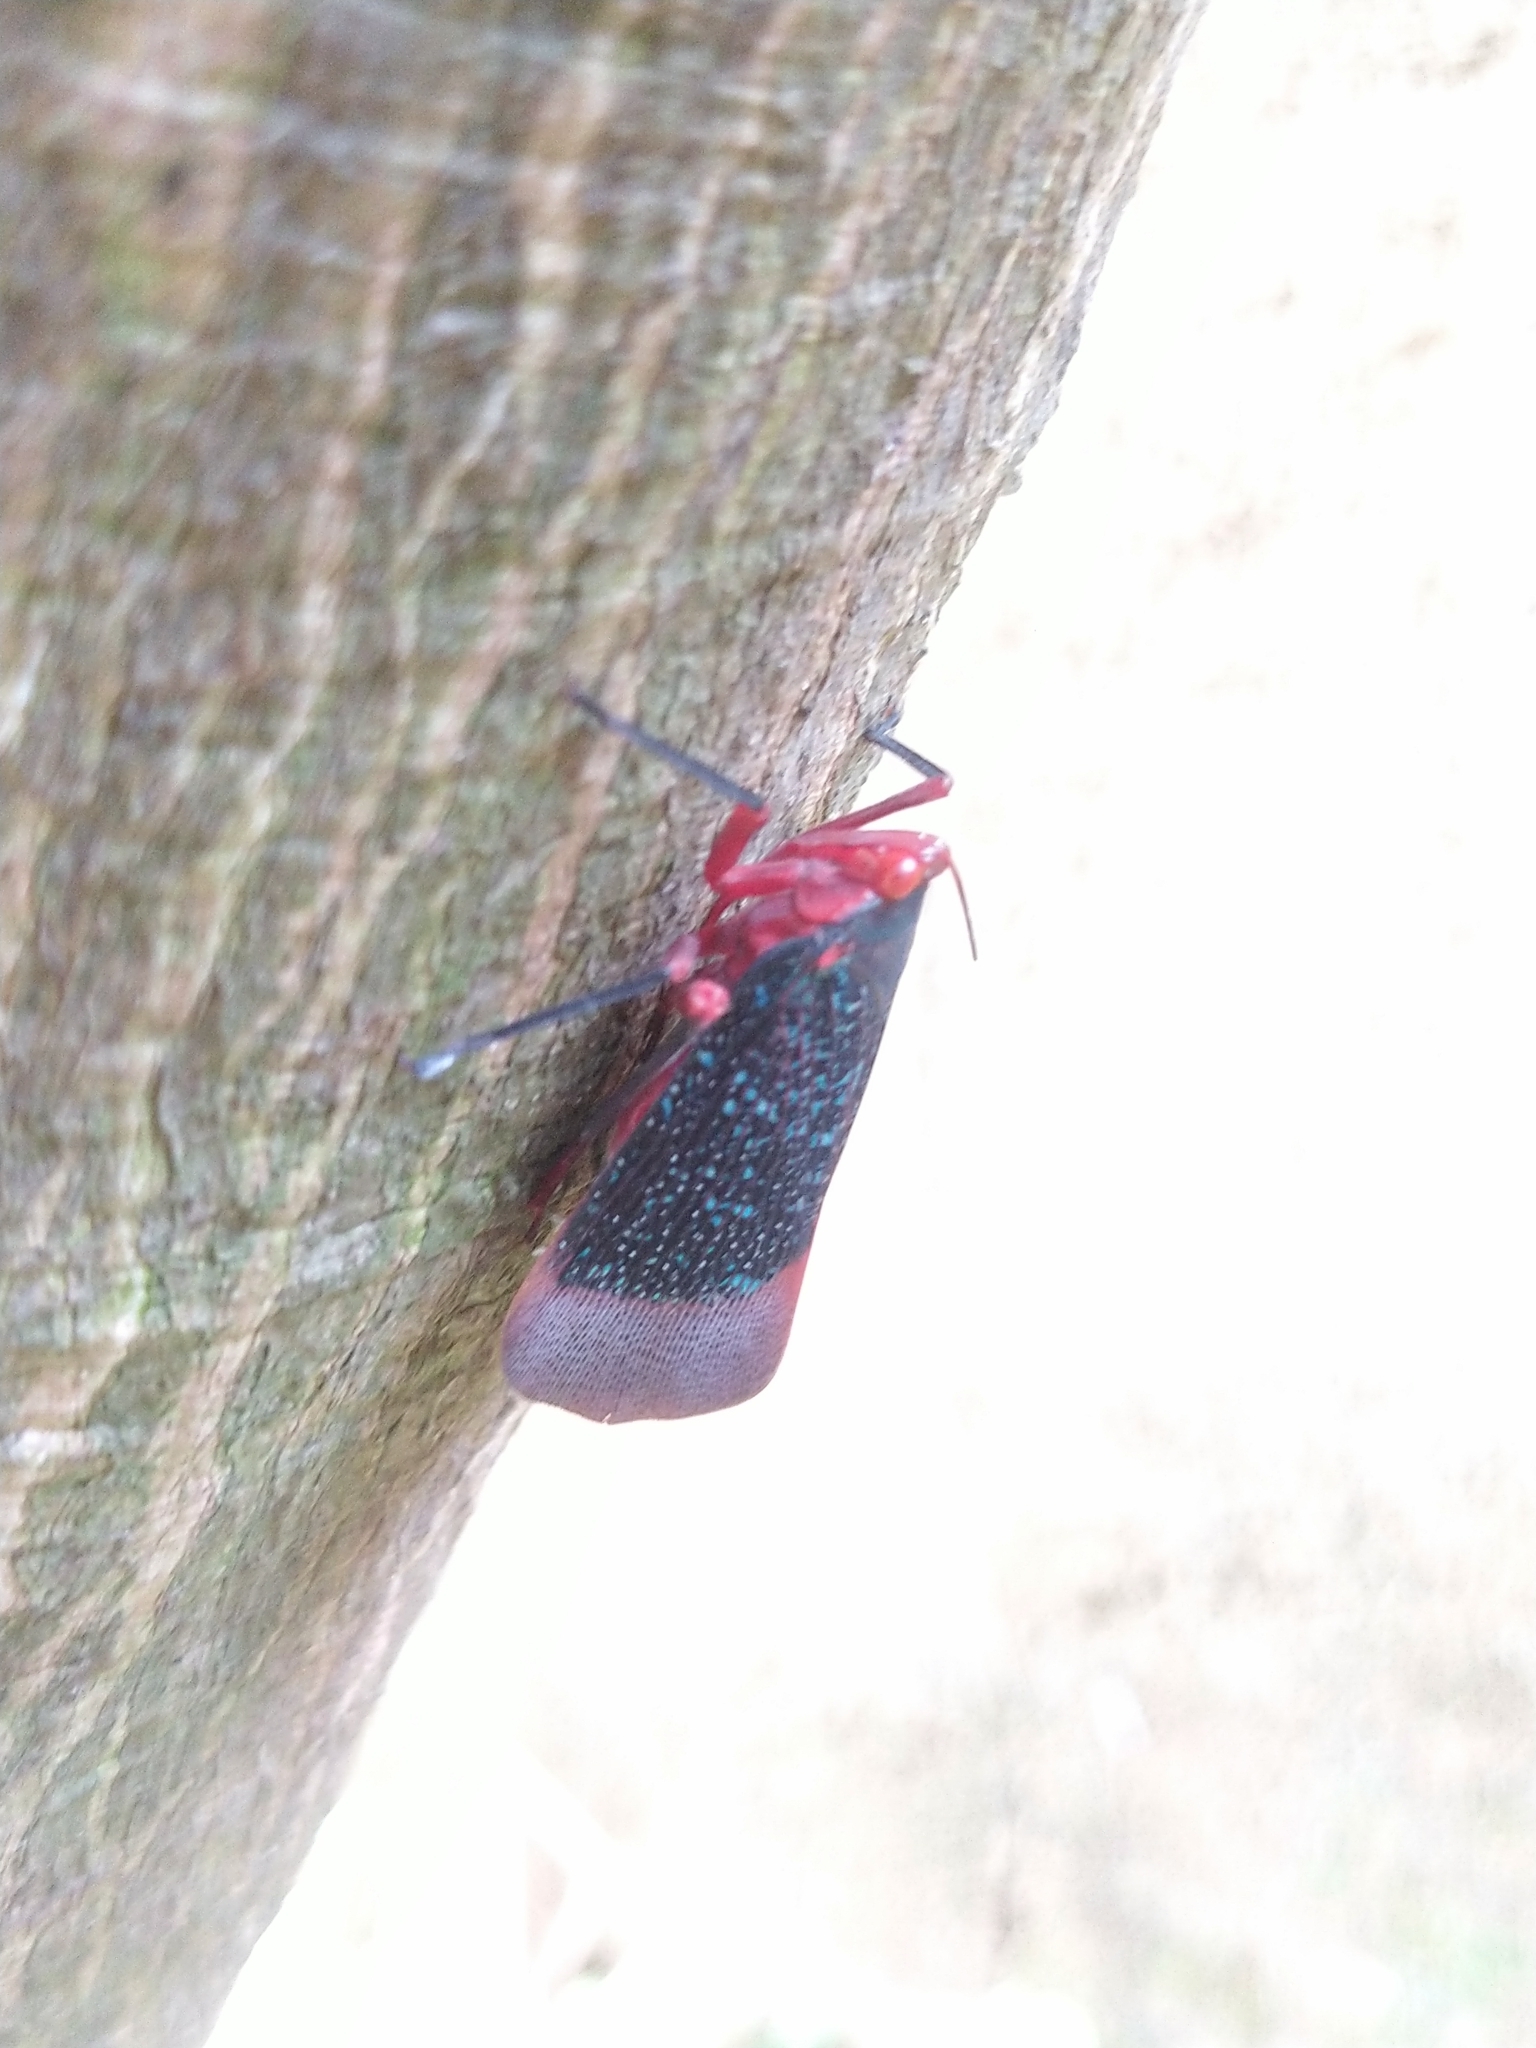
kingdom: Animalia
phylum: Arthropoda
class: Insecta
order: Hemiptera
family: Fulgoridae
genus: Kalidasa
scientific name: Kalidasa lanata
